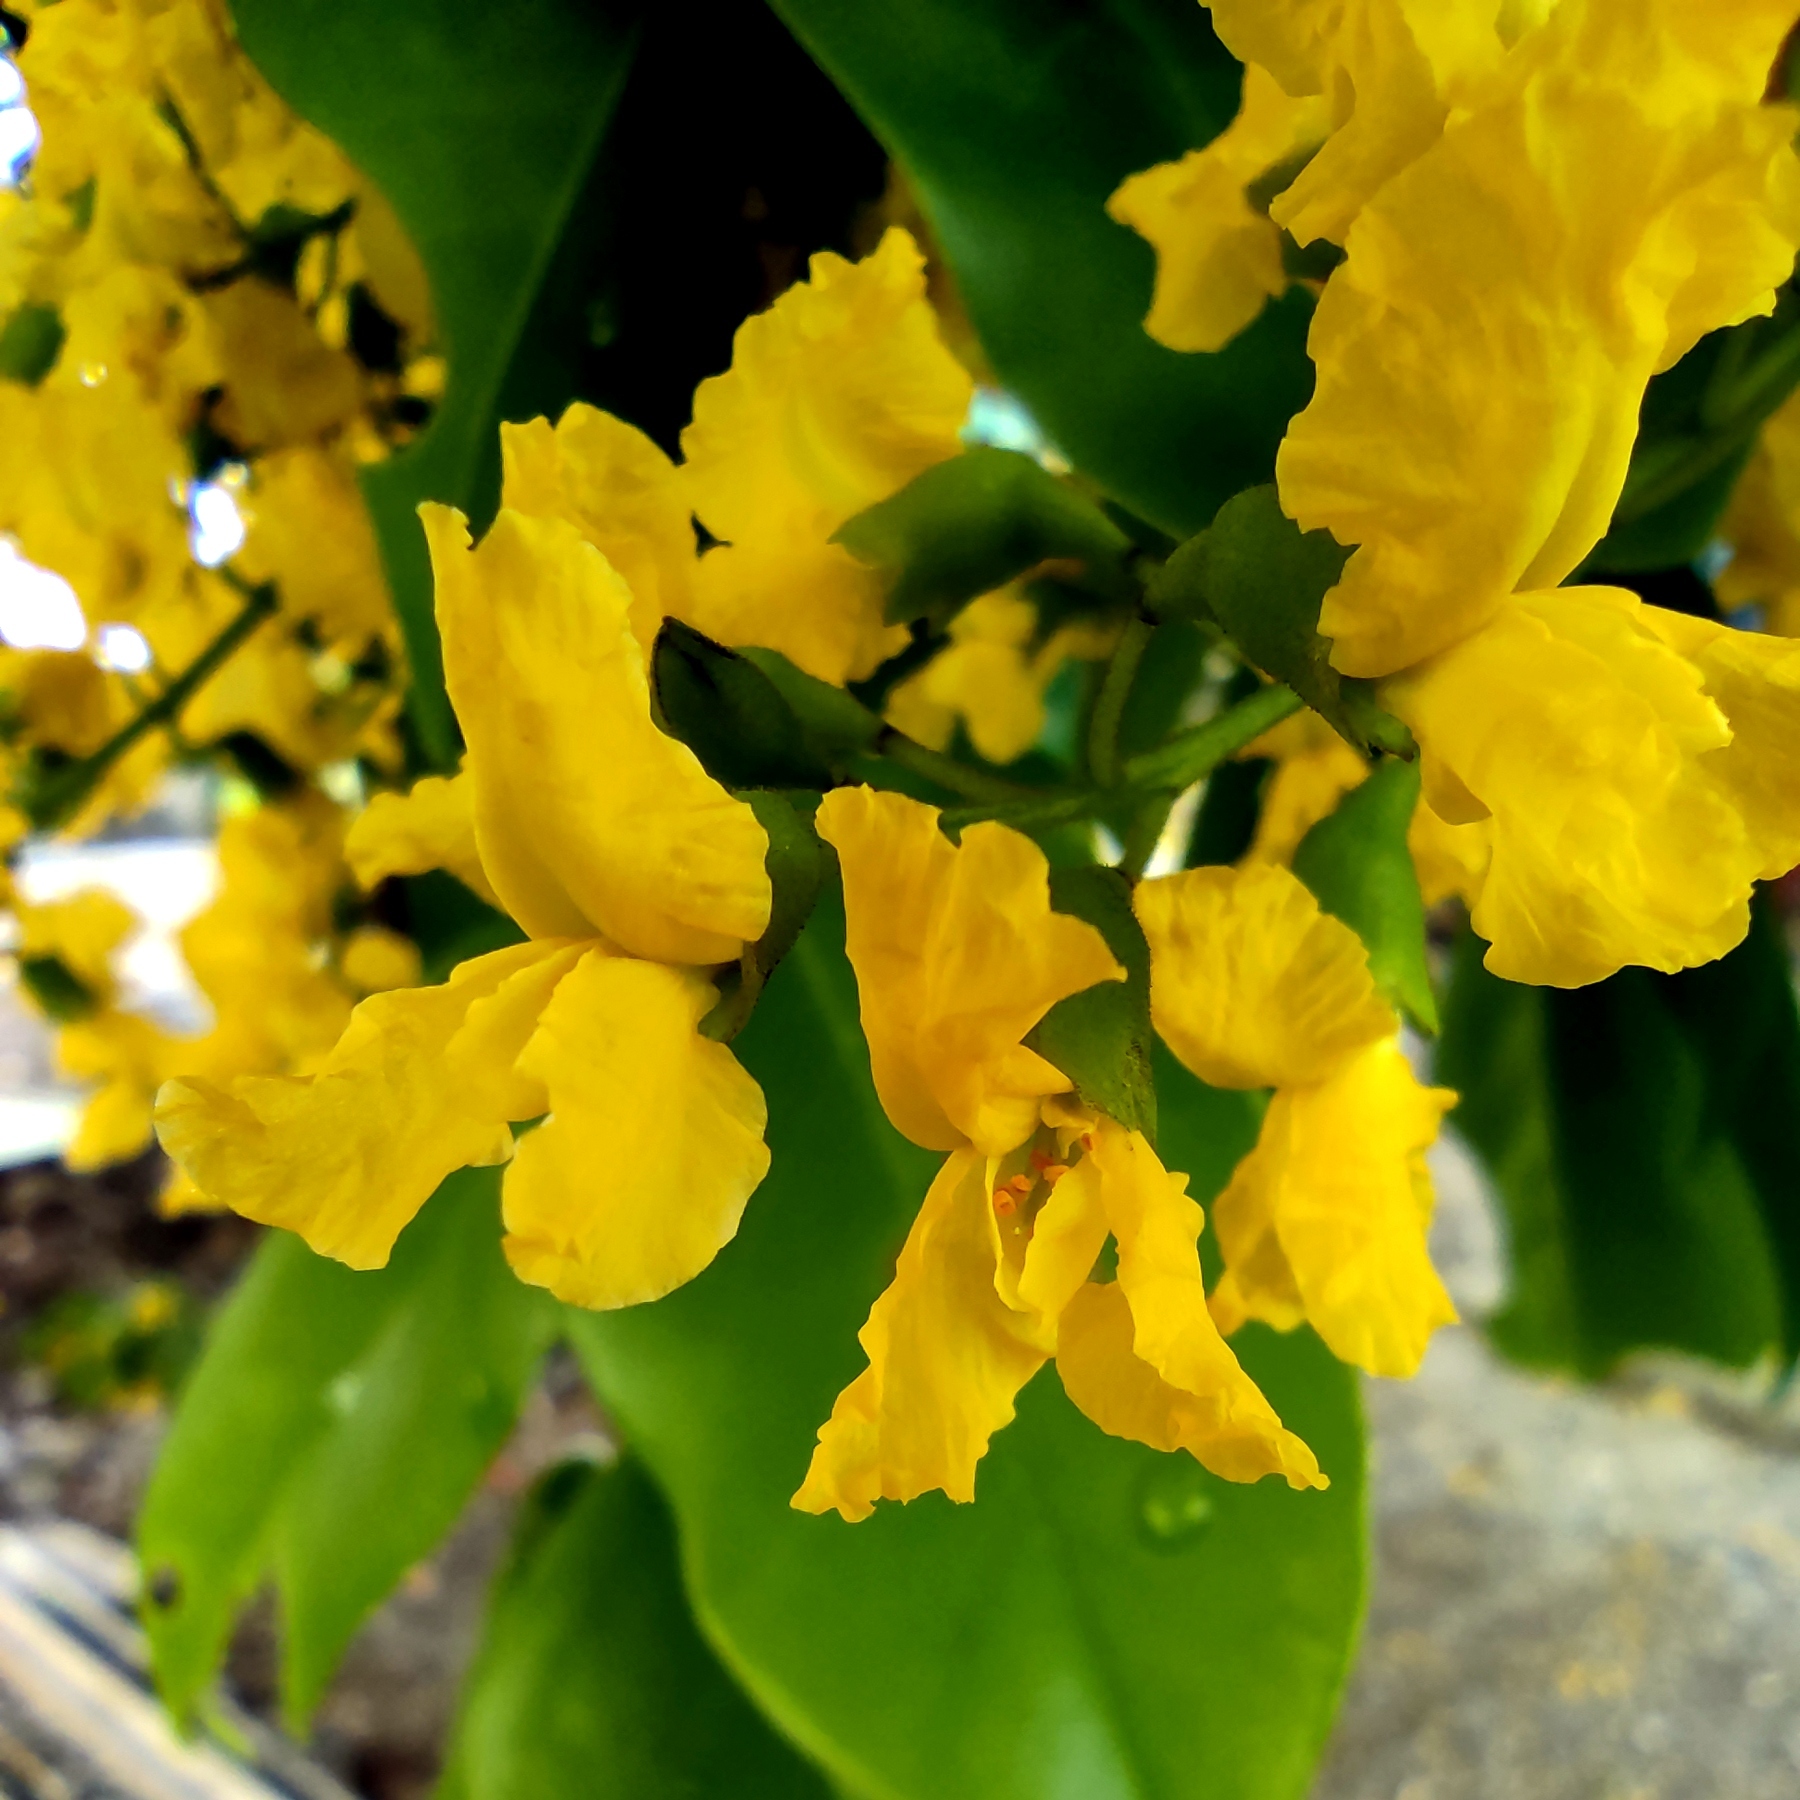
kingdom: Plantae
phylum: Tracheophyta
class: Magnoliopsida
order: Fabales
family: Fabaceae
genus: Pterocarpus
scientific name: Pterocarpus indicus
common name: Burmese rosewood
